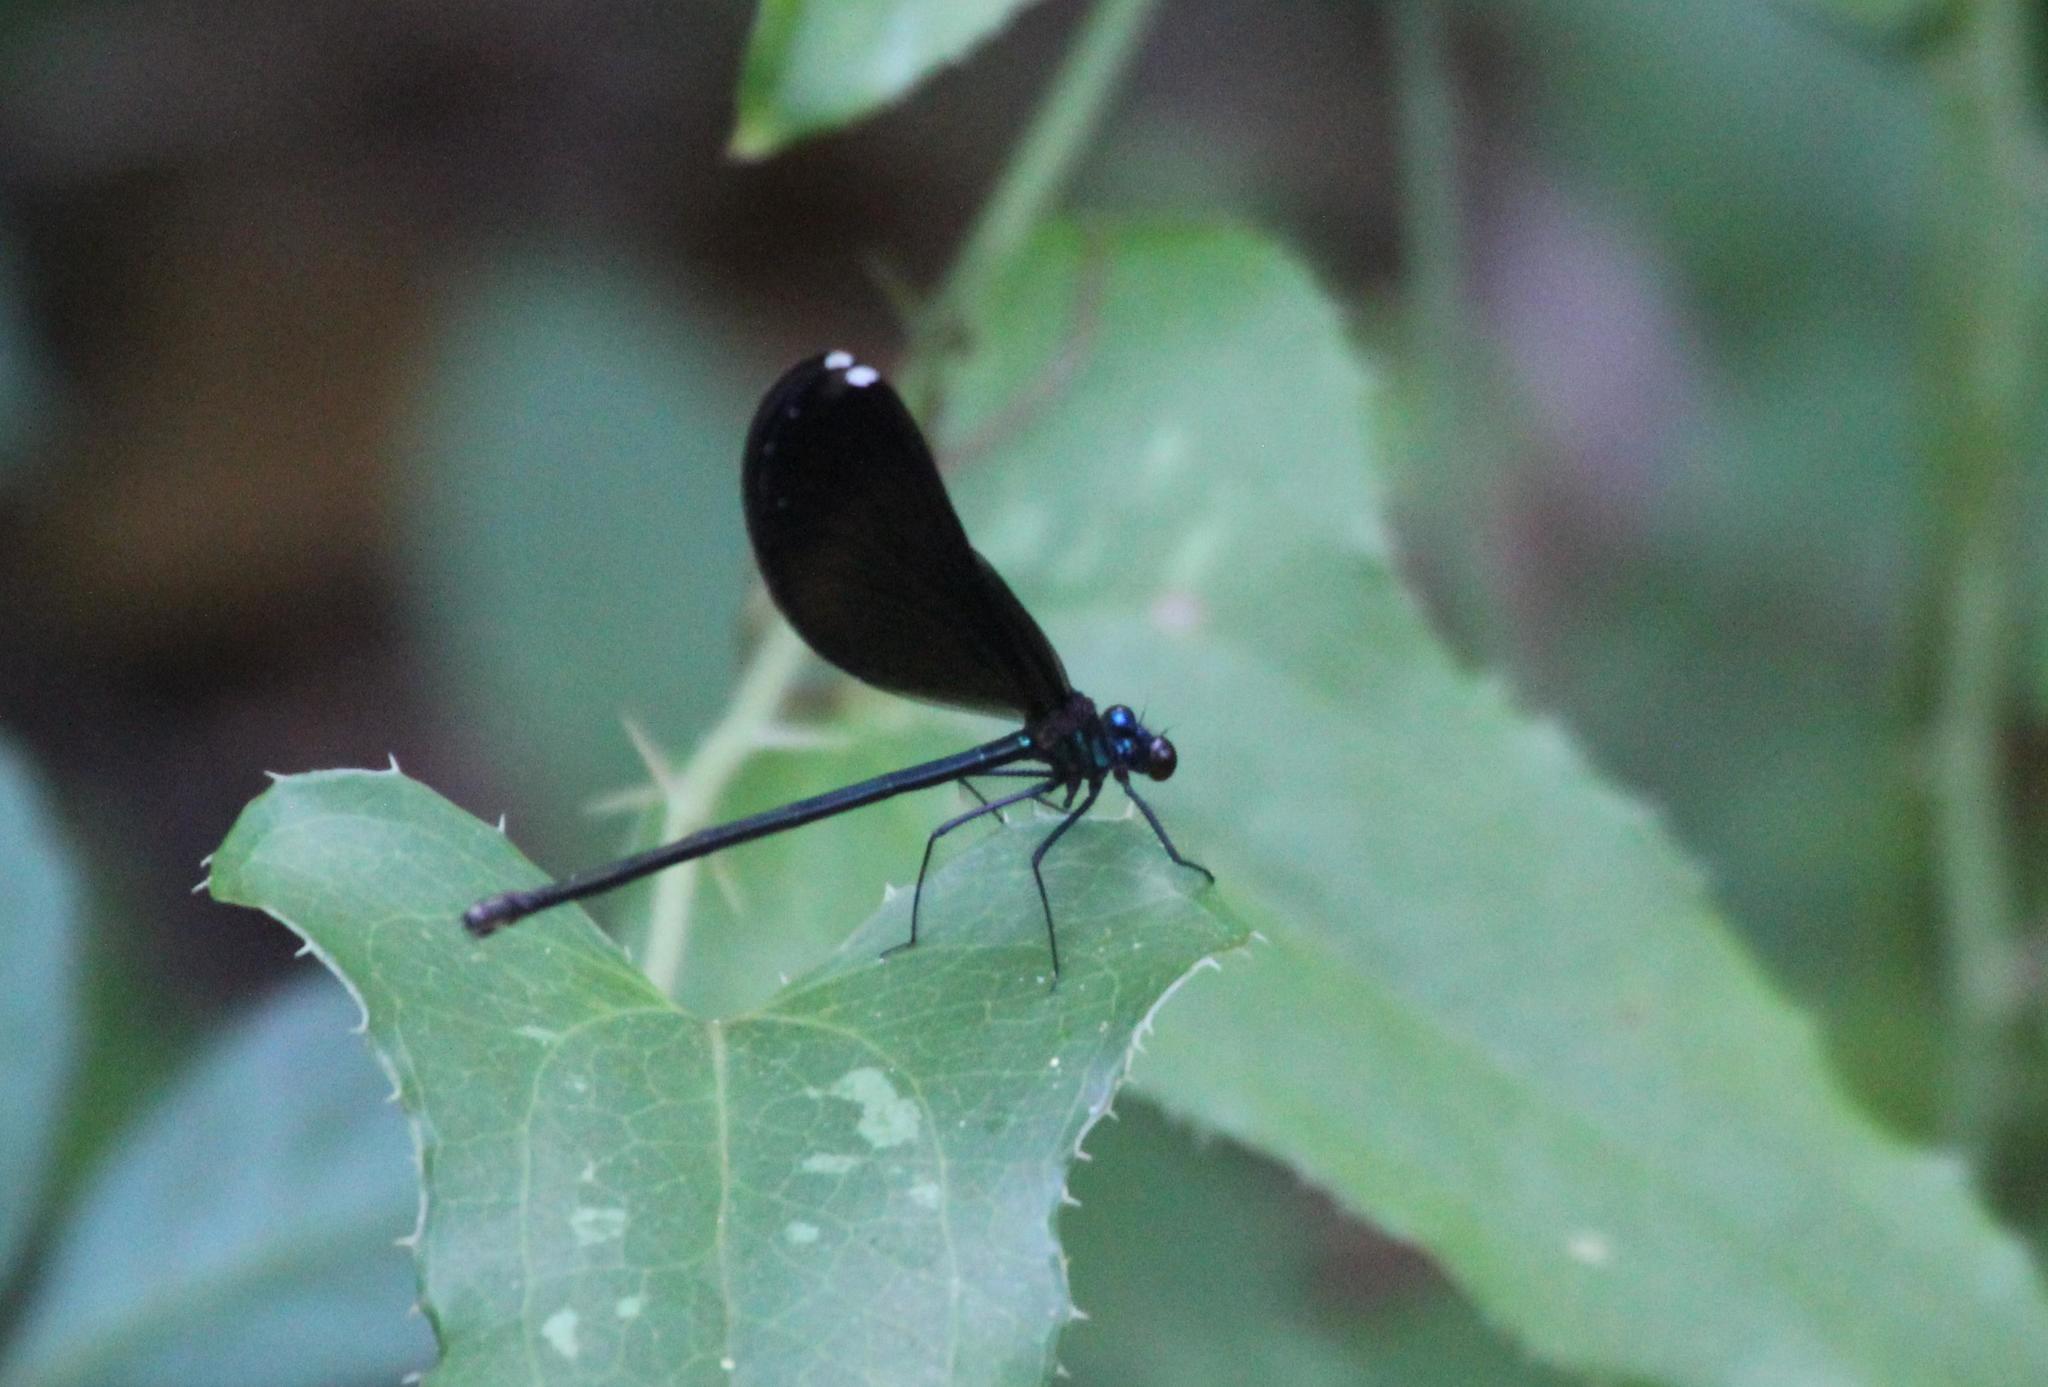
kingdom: Animalia
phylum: Arthropoda
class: Insecta
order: Odonata
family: Calopterygidae
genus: Calopteryx
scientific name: Calopteryx maculata
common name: Ebony jewelwing
